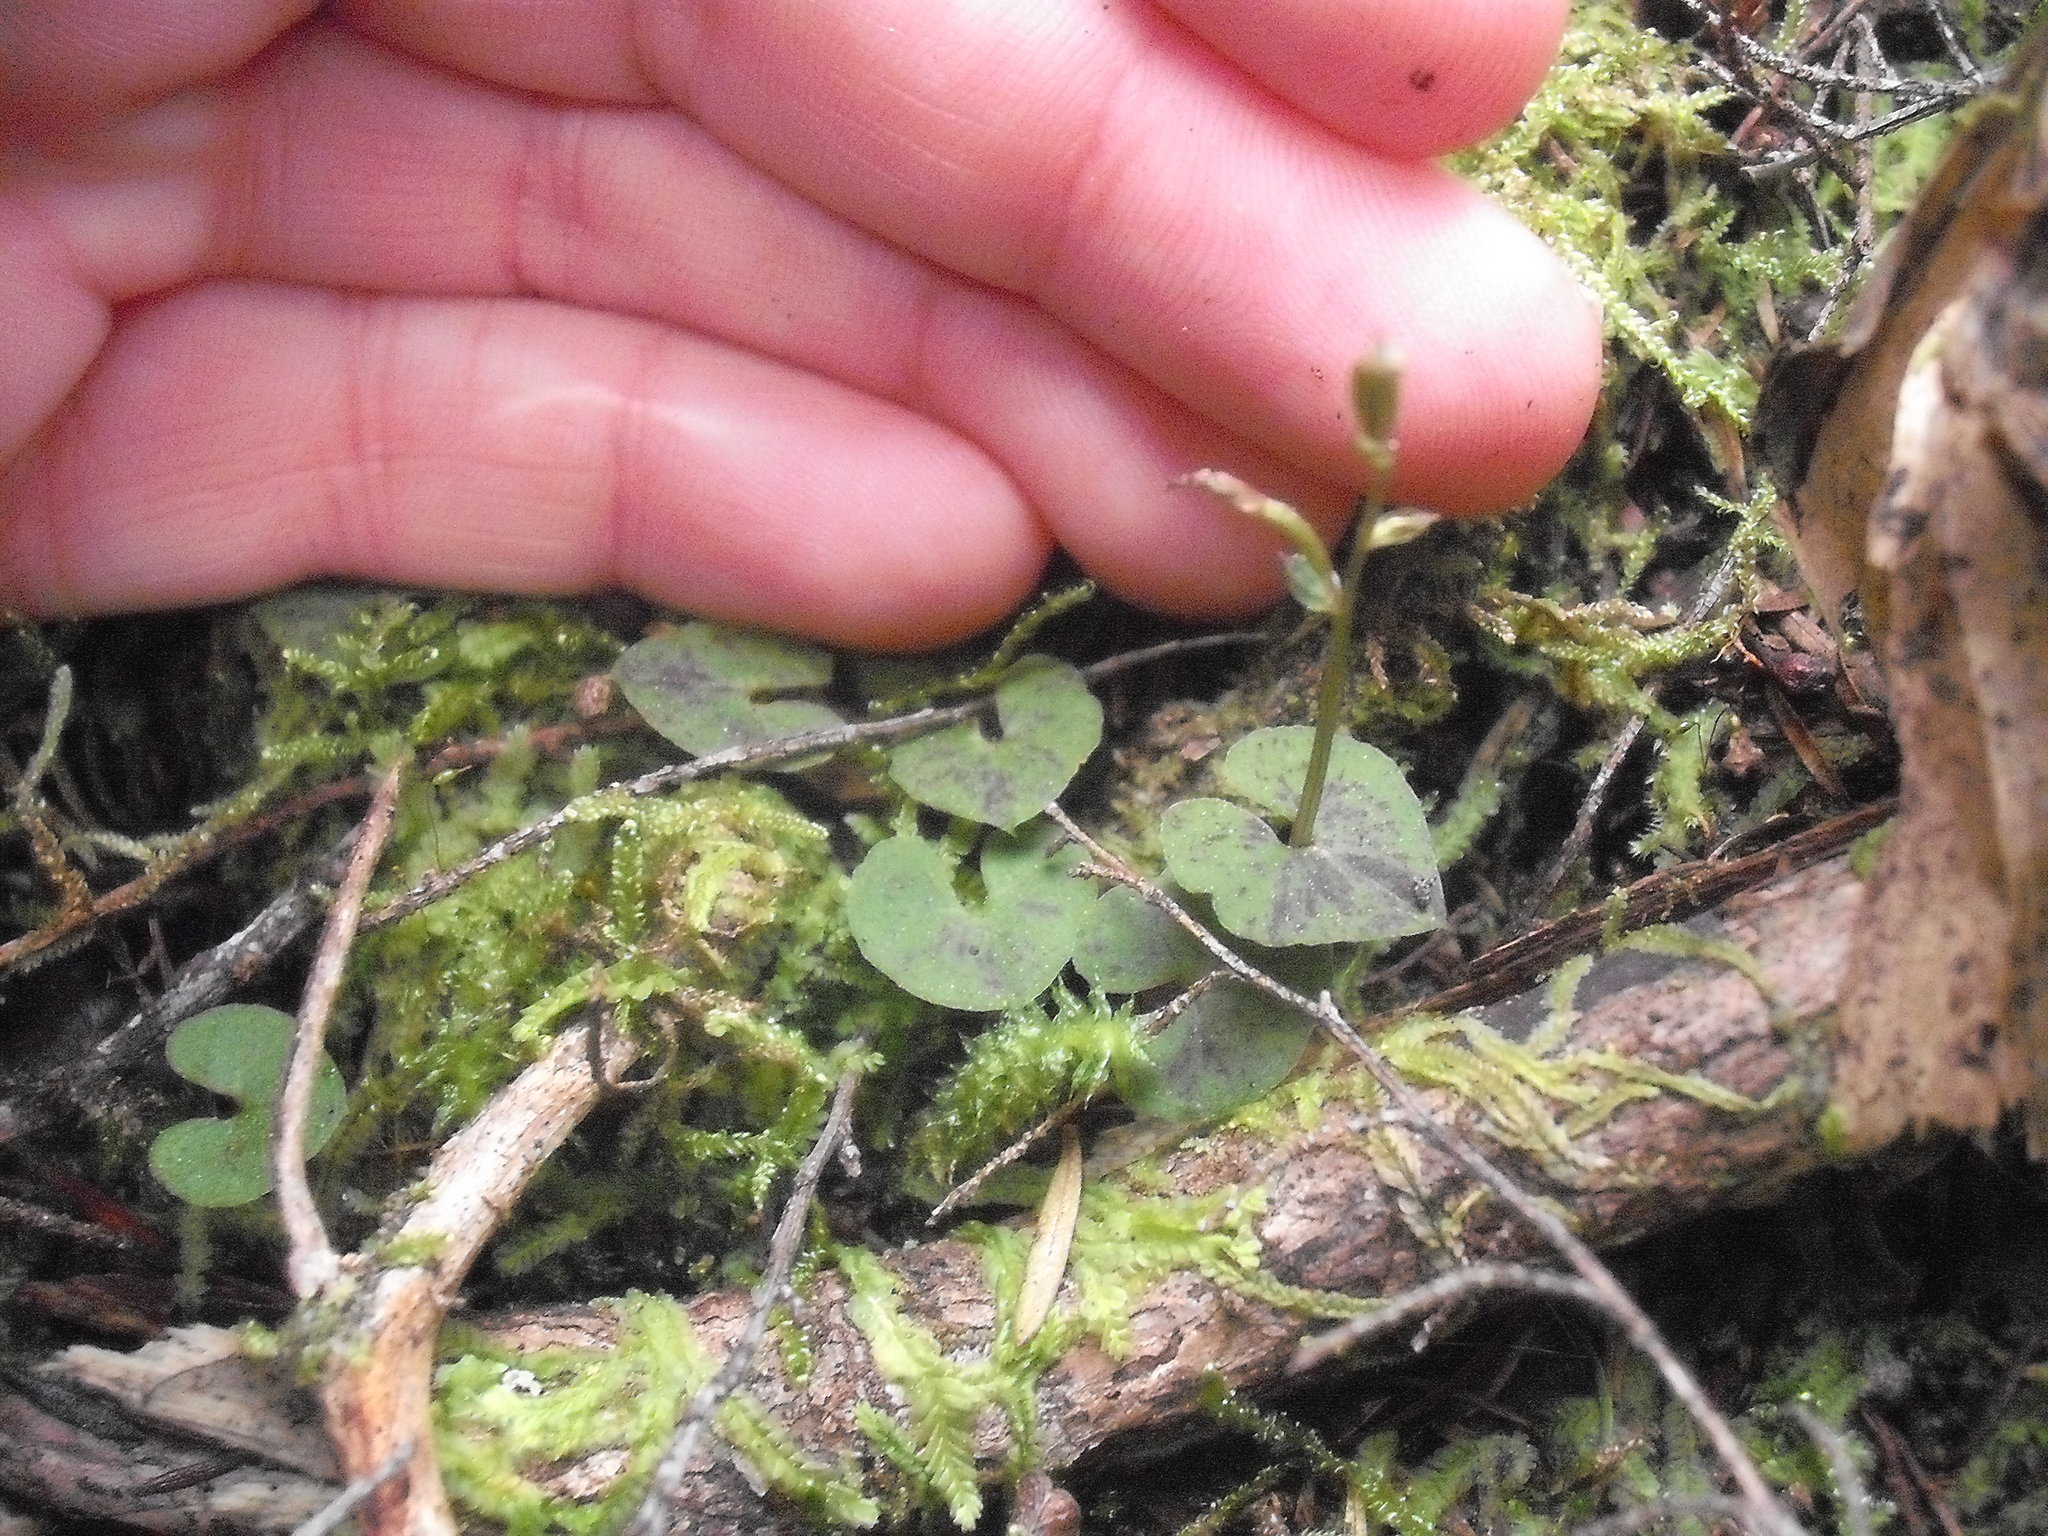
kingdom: Plantae
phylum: Tracheophyta
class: Liliopsida
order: Asparagales
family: Orchidaceae
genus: Acianthus
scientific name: Acianthus sinclairii
